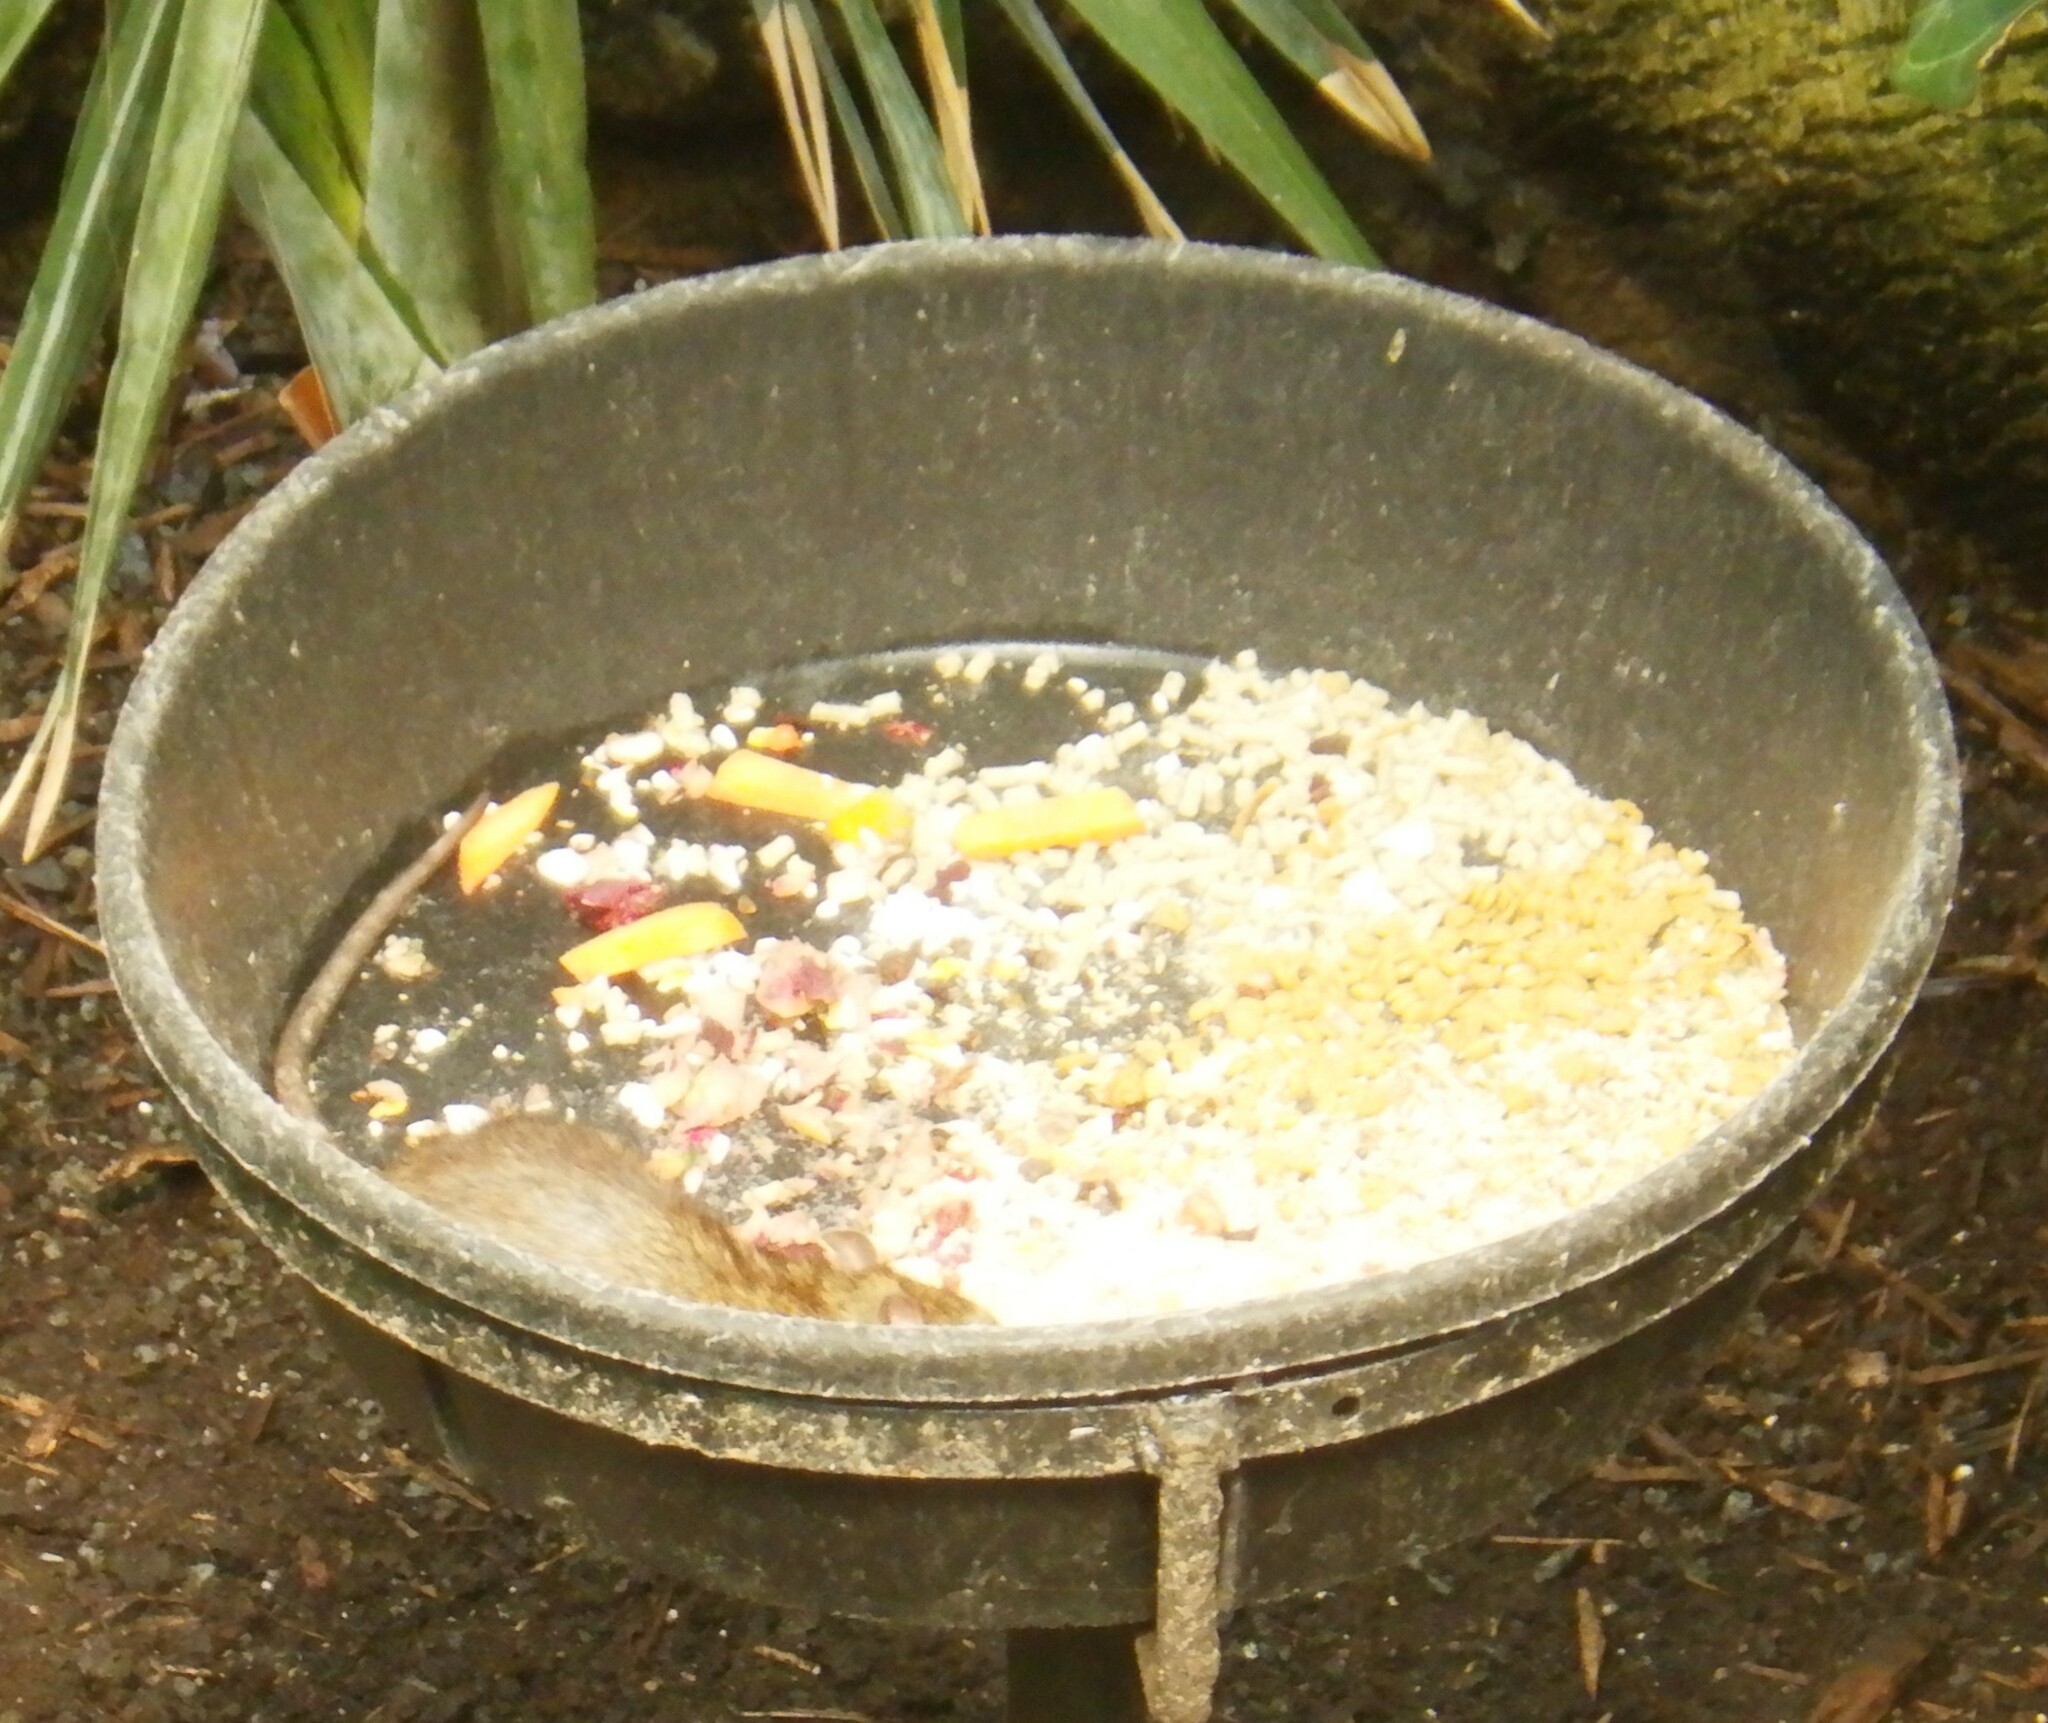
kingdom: Animalia
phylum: Chordata
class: Mammalia
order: Rodentia
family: Muridae
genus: Rattus
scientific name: Rattus norvegicus
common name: Brown rat
